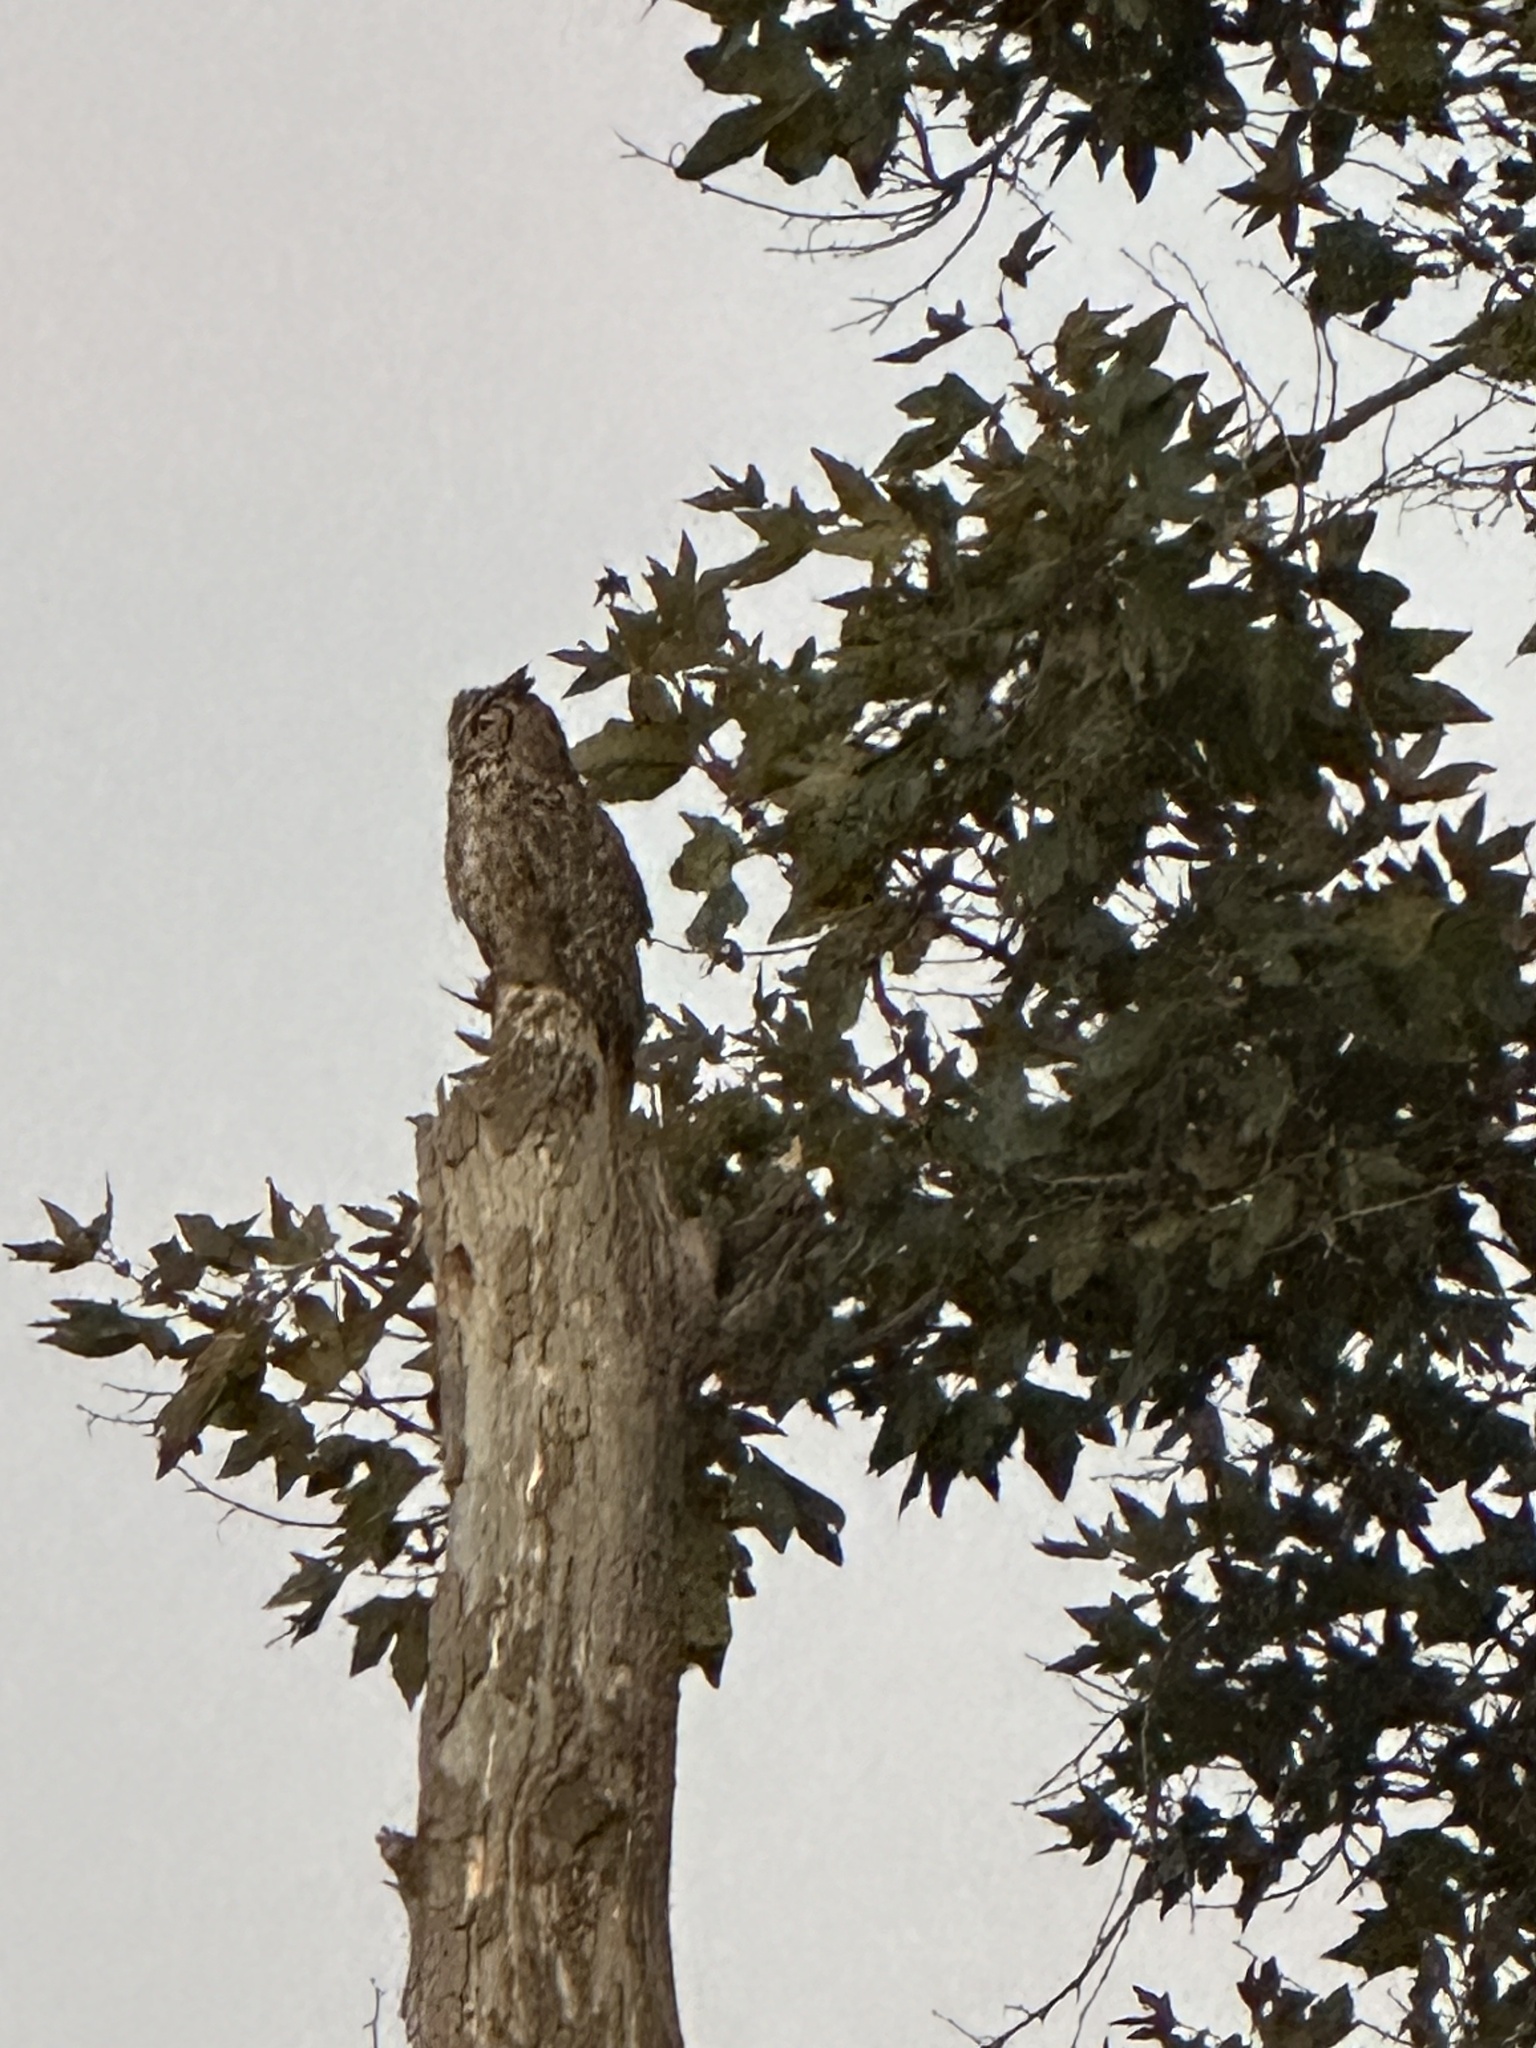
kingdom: Animalia
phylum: Chordata
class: Aves
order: Strigiformes
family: Strigidae
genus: Bubo
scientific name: Bubo virginianus
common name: Great horned owl
